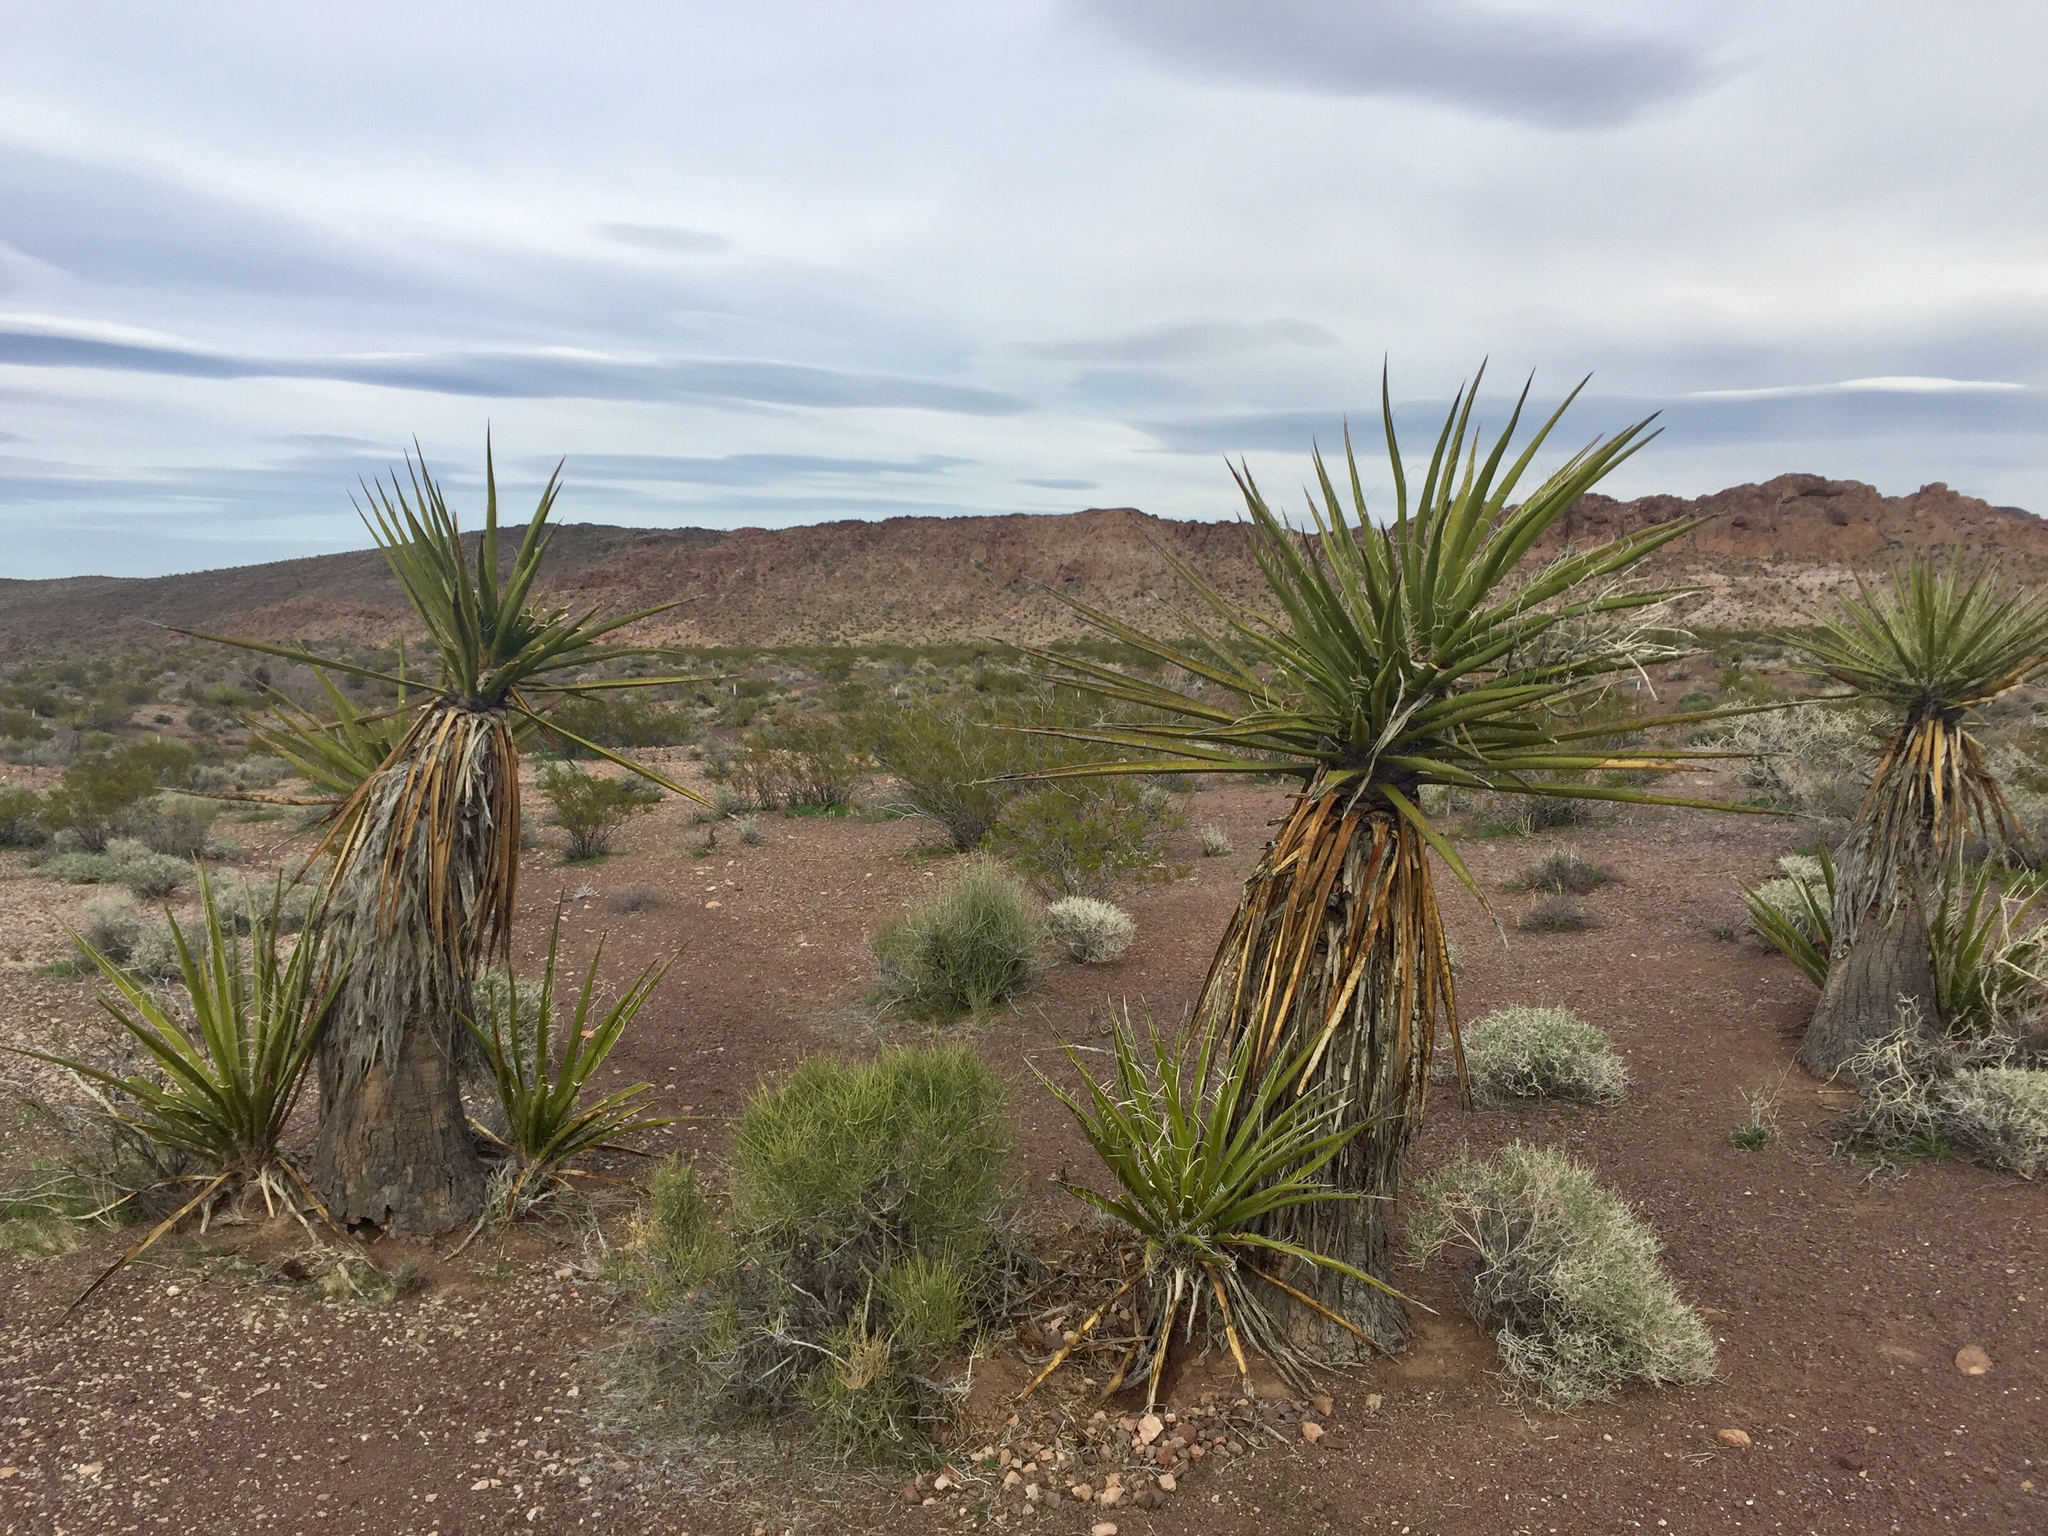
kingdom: Plantae
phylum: Tracheophyta
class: Liliopsida
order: Asparagales
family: Asparagaceae
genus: Yucca
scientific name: Yucca schidigera
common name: Mojave yucca
